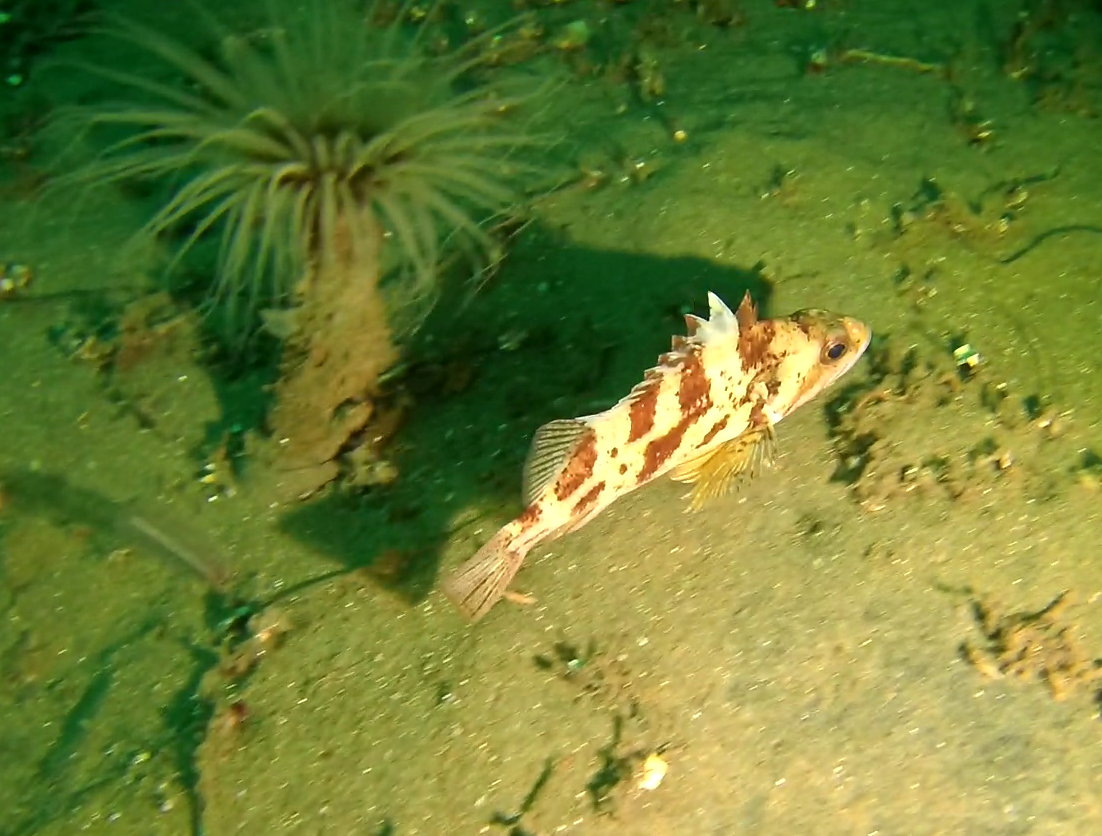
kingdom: Animalia
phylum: Chordata
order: Scorpaeniformes
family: Sebastidae
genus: Sebastes
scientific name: Sebastes dallii
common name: Calico rockfish
